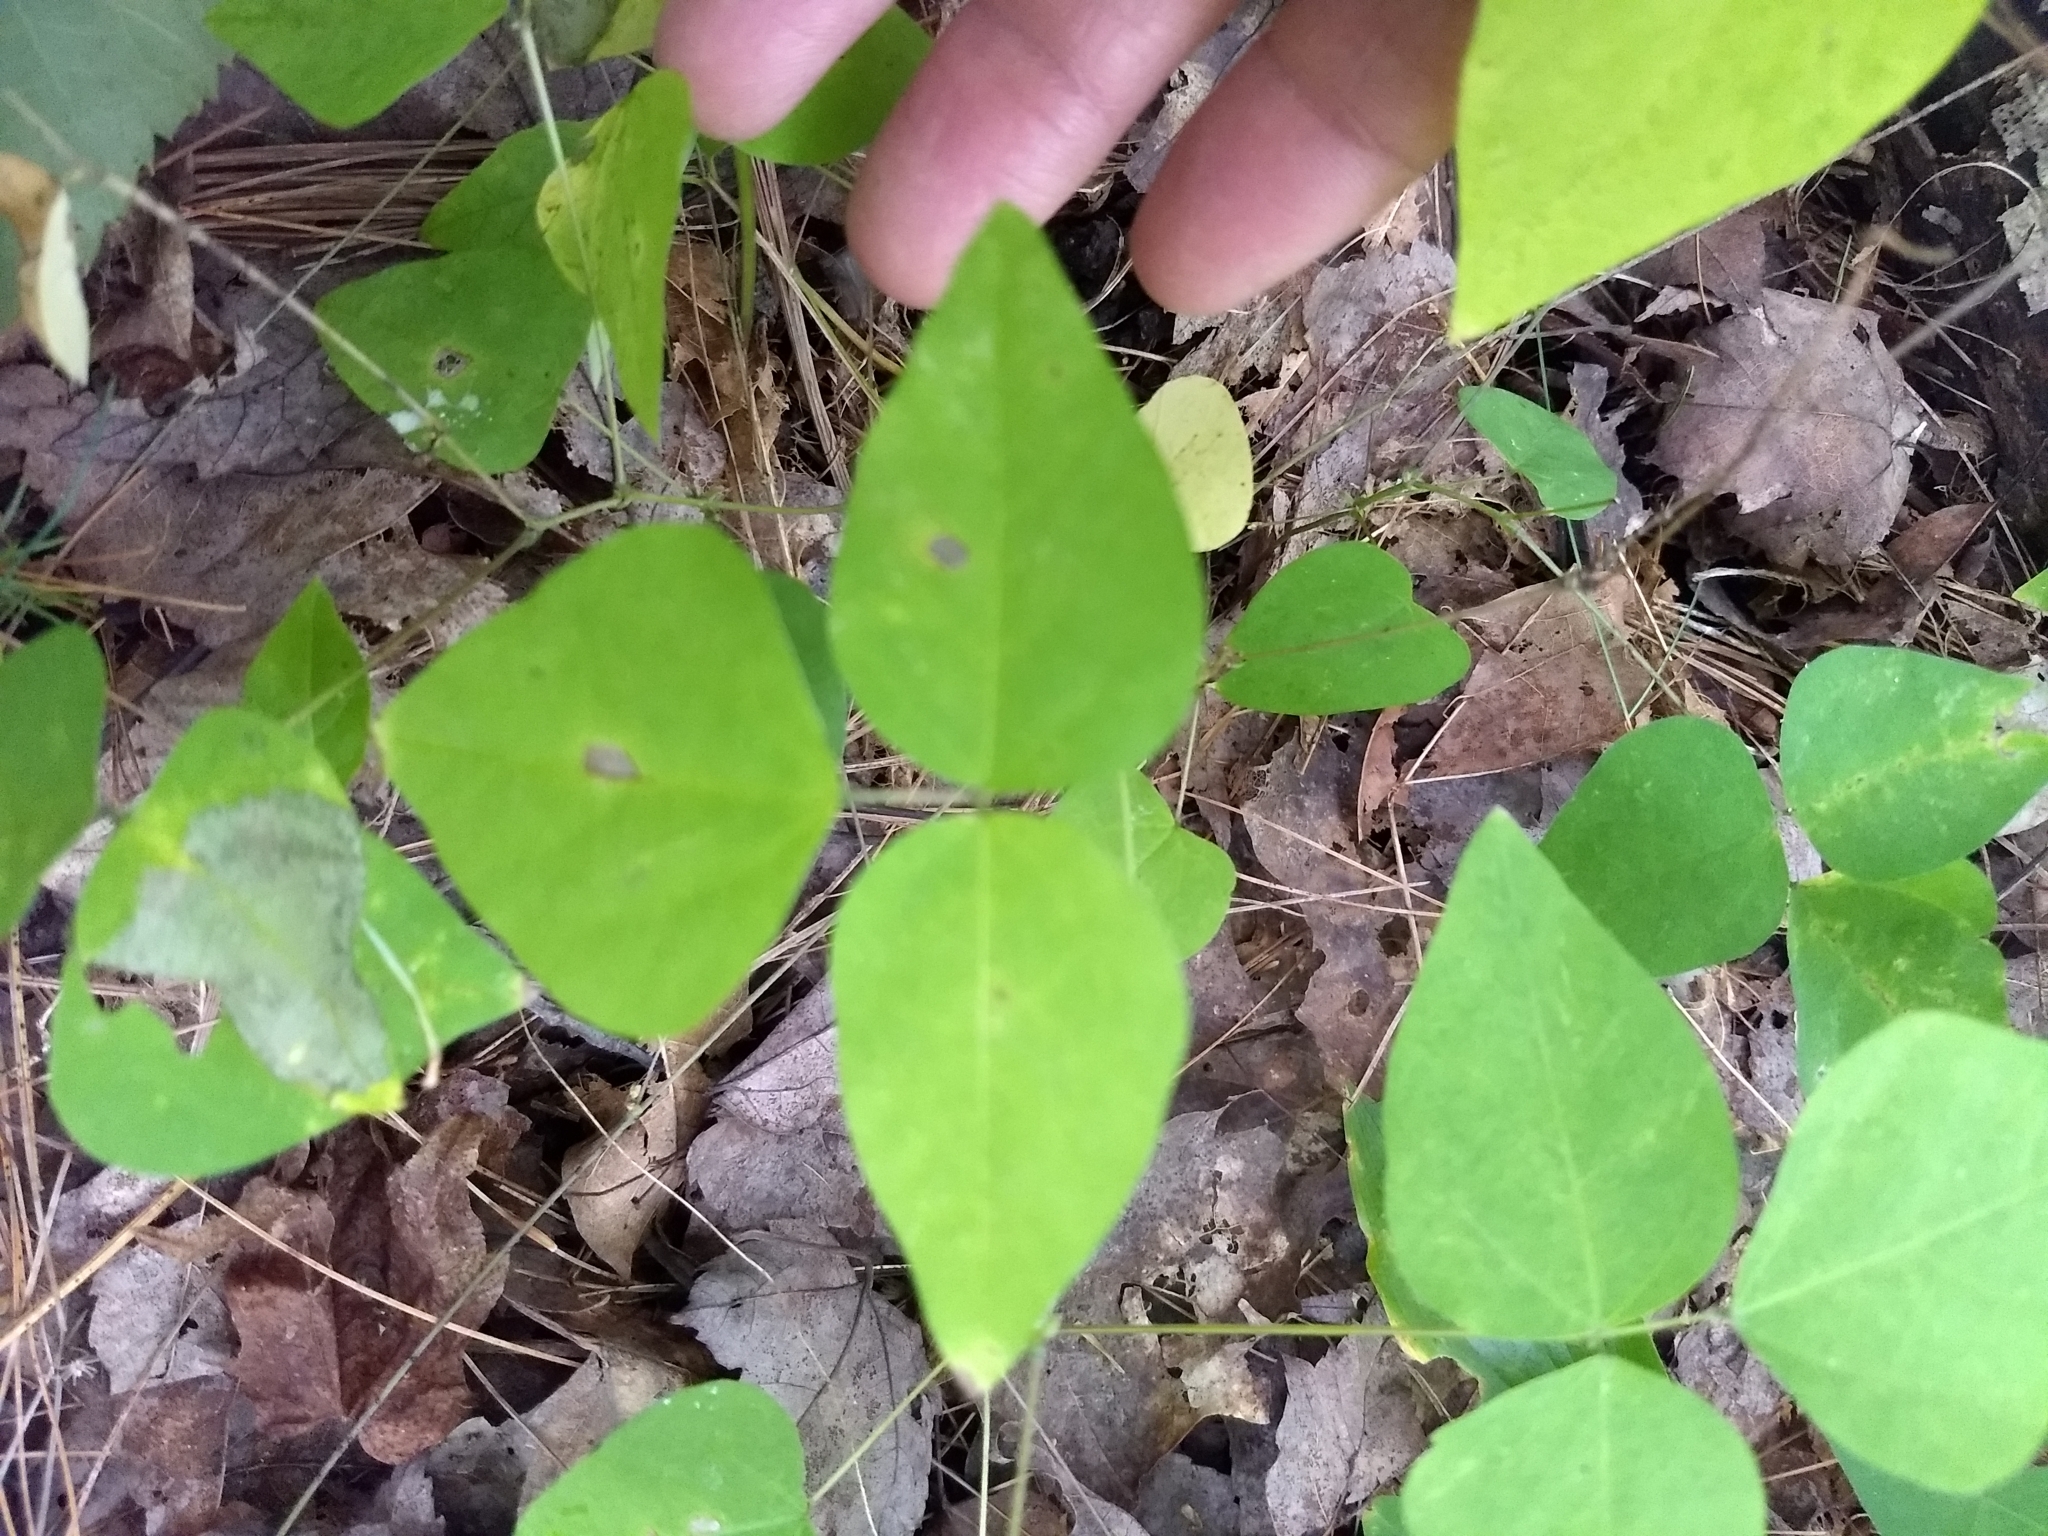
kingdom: Plantae
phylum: Tracheophyta
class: Magnoliopsida
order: Fabales
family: Fabaceae
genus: Amphicarpaea
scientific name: Amphicarpaea bracteata
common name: American hog peanut
